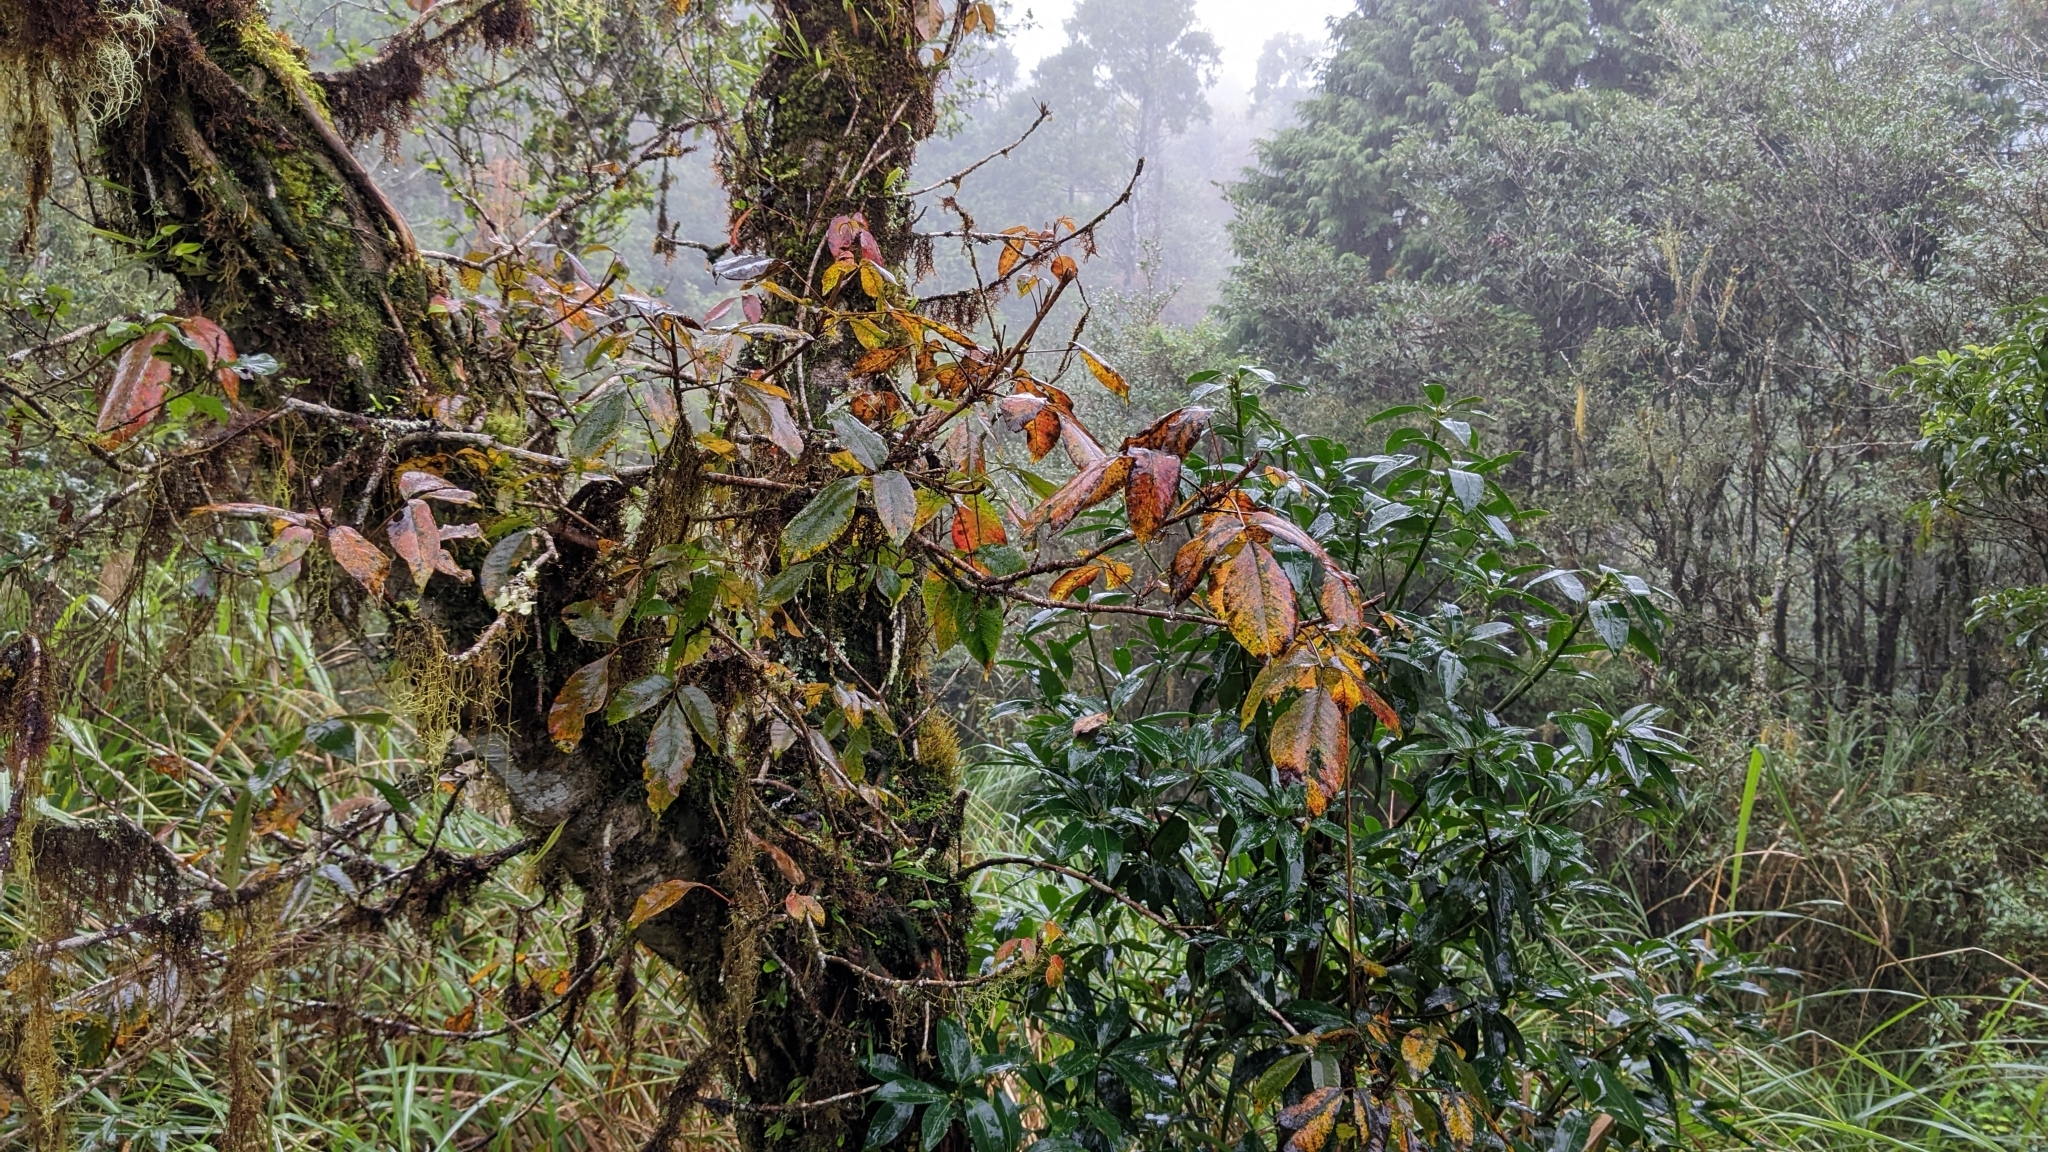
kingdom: Plantae
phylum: Tracheophyta
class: Magnoliopsida
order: Sapindales
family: Anacardiaceae
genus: Toxicodendron
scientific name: Toxicodendron orientale
